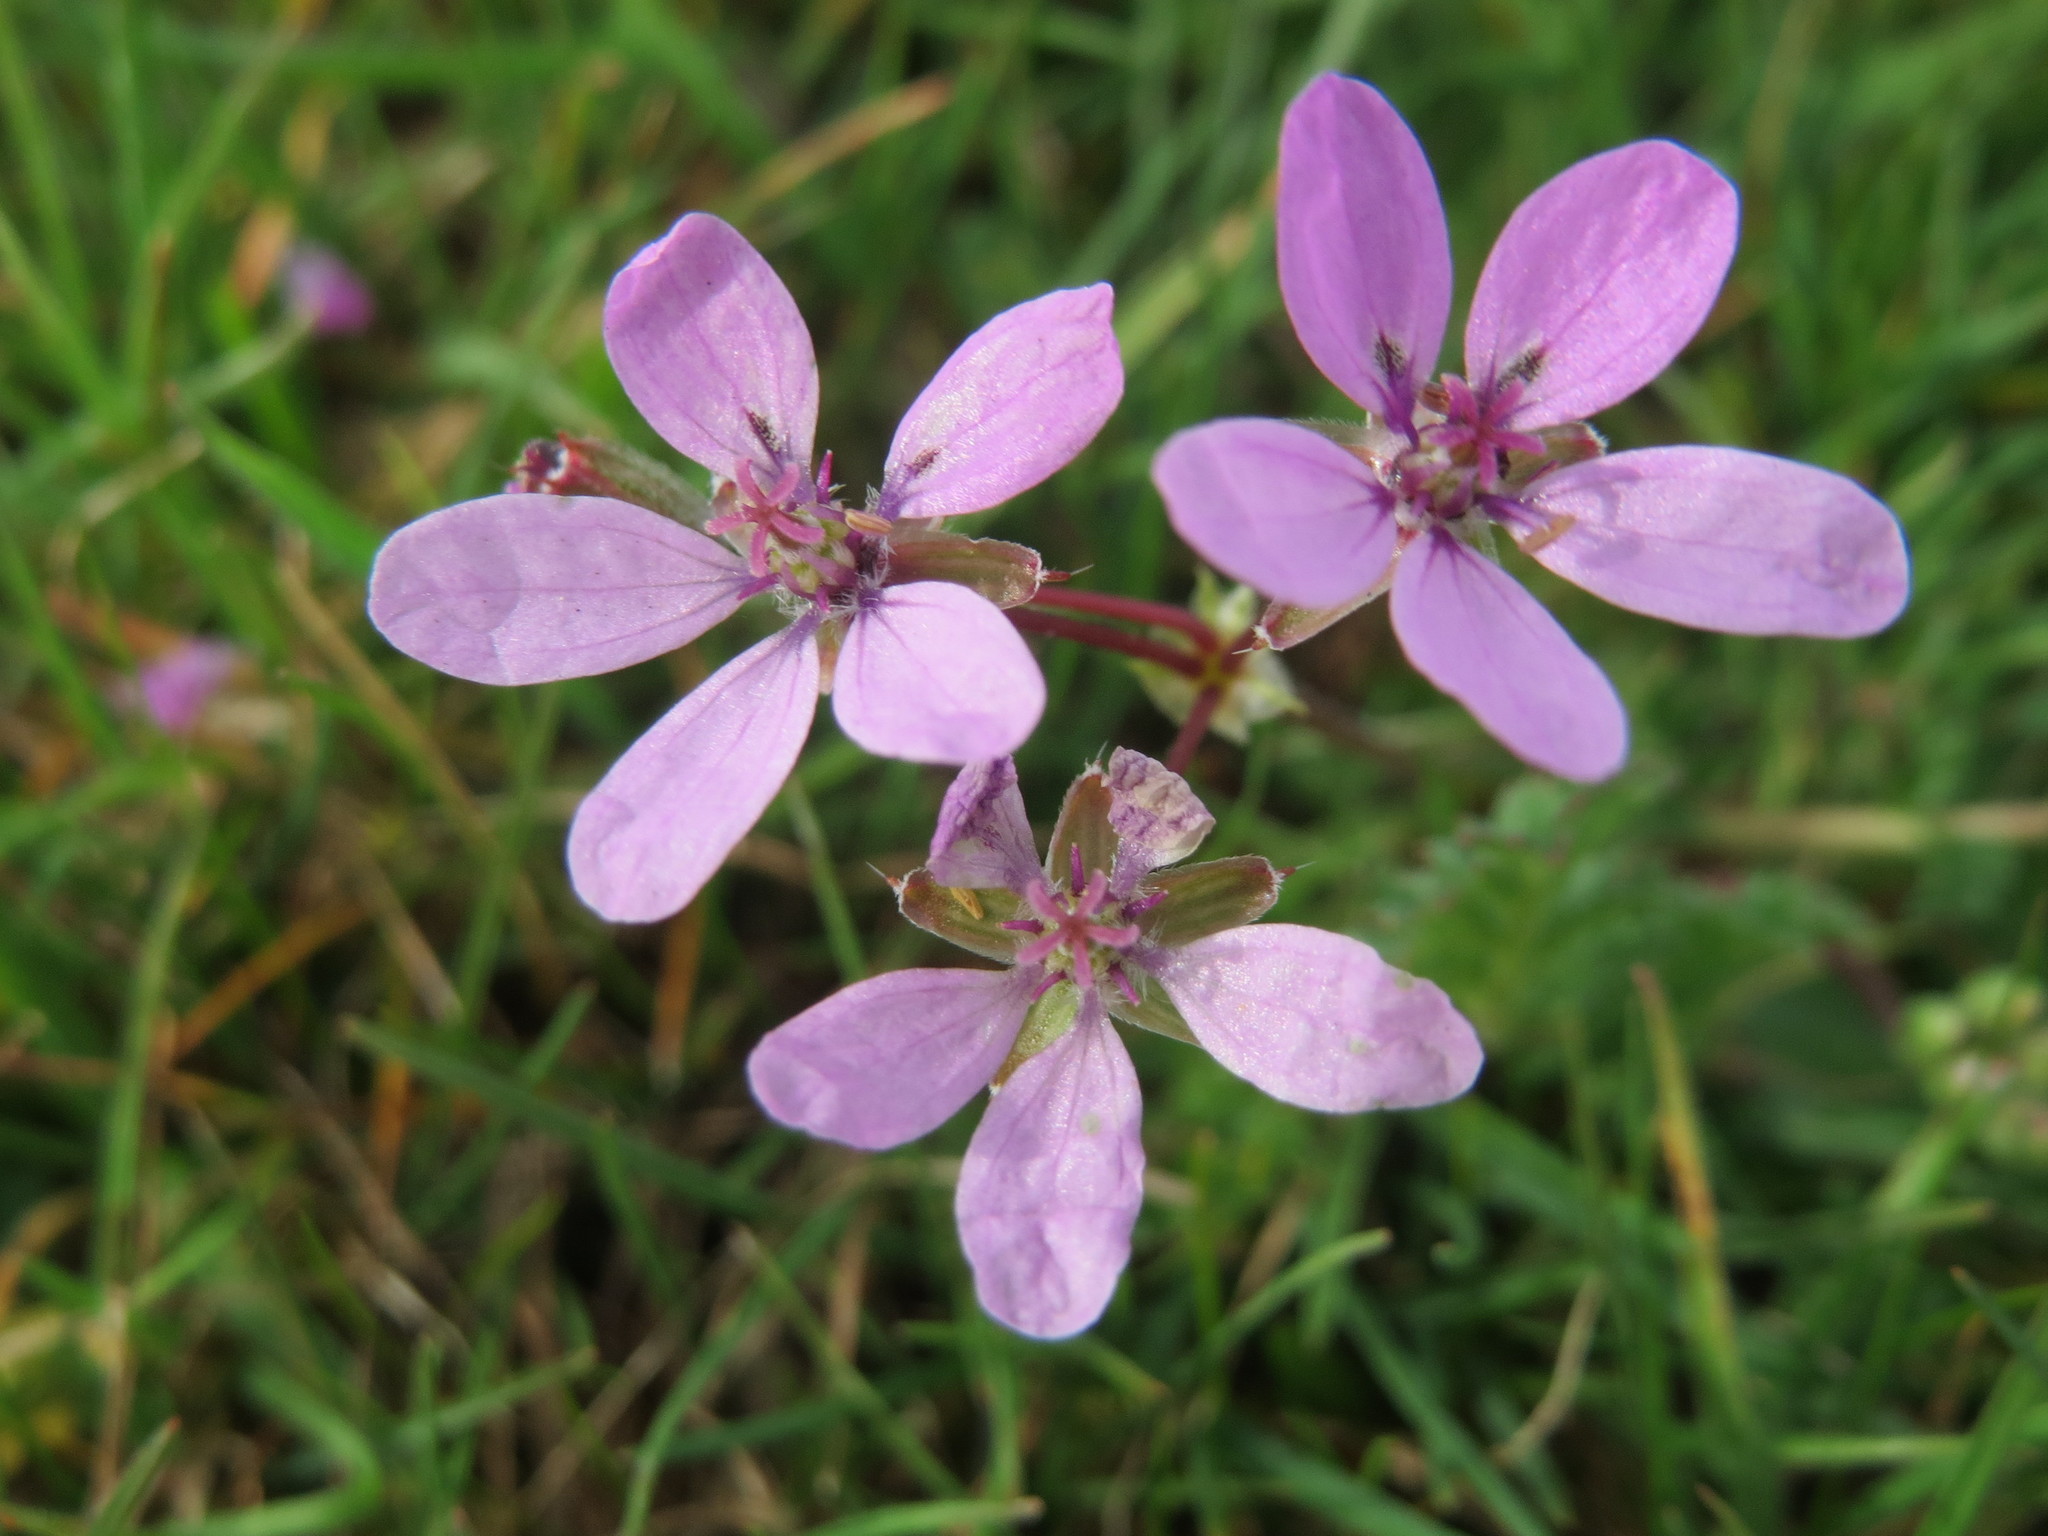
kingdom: Plantae
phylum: Tracheophyta
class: Magnoliopsida
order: Geraniales
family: Geraniaceae
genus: Erodium
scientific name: Erodium cicutarium
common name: Common stork's-bill
